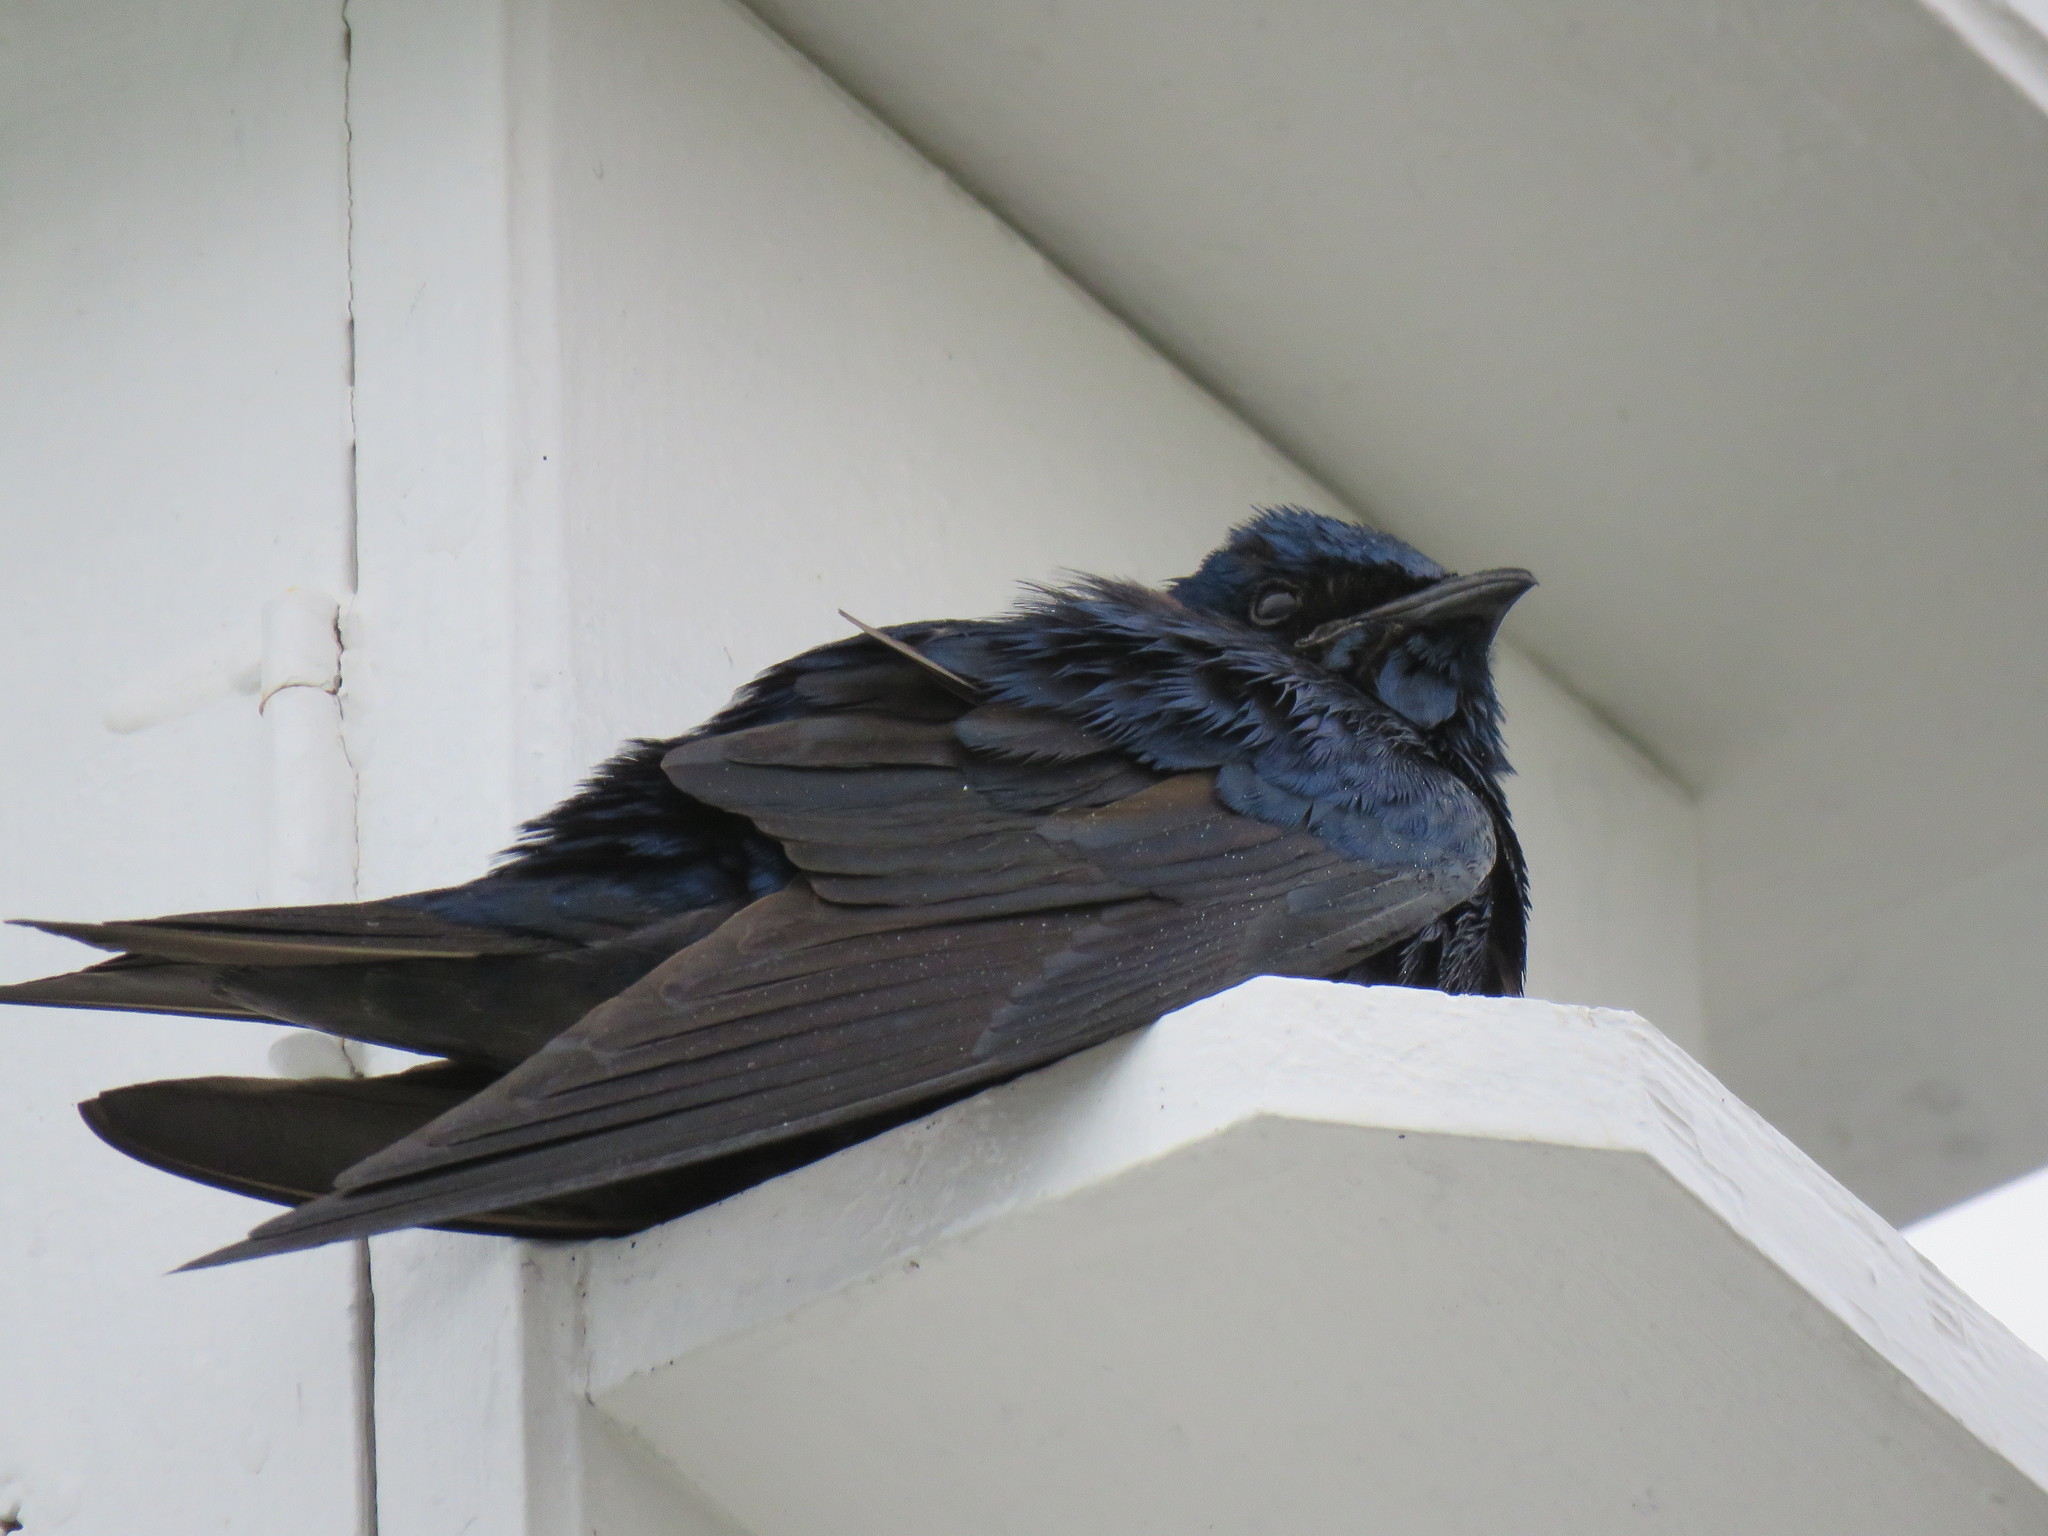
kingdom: Animalia
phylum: Chordata
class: Aves
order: Passeriformes
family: Hirundinidae
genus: Progne
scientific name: Progne subis
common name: Purple martin
